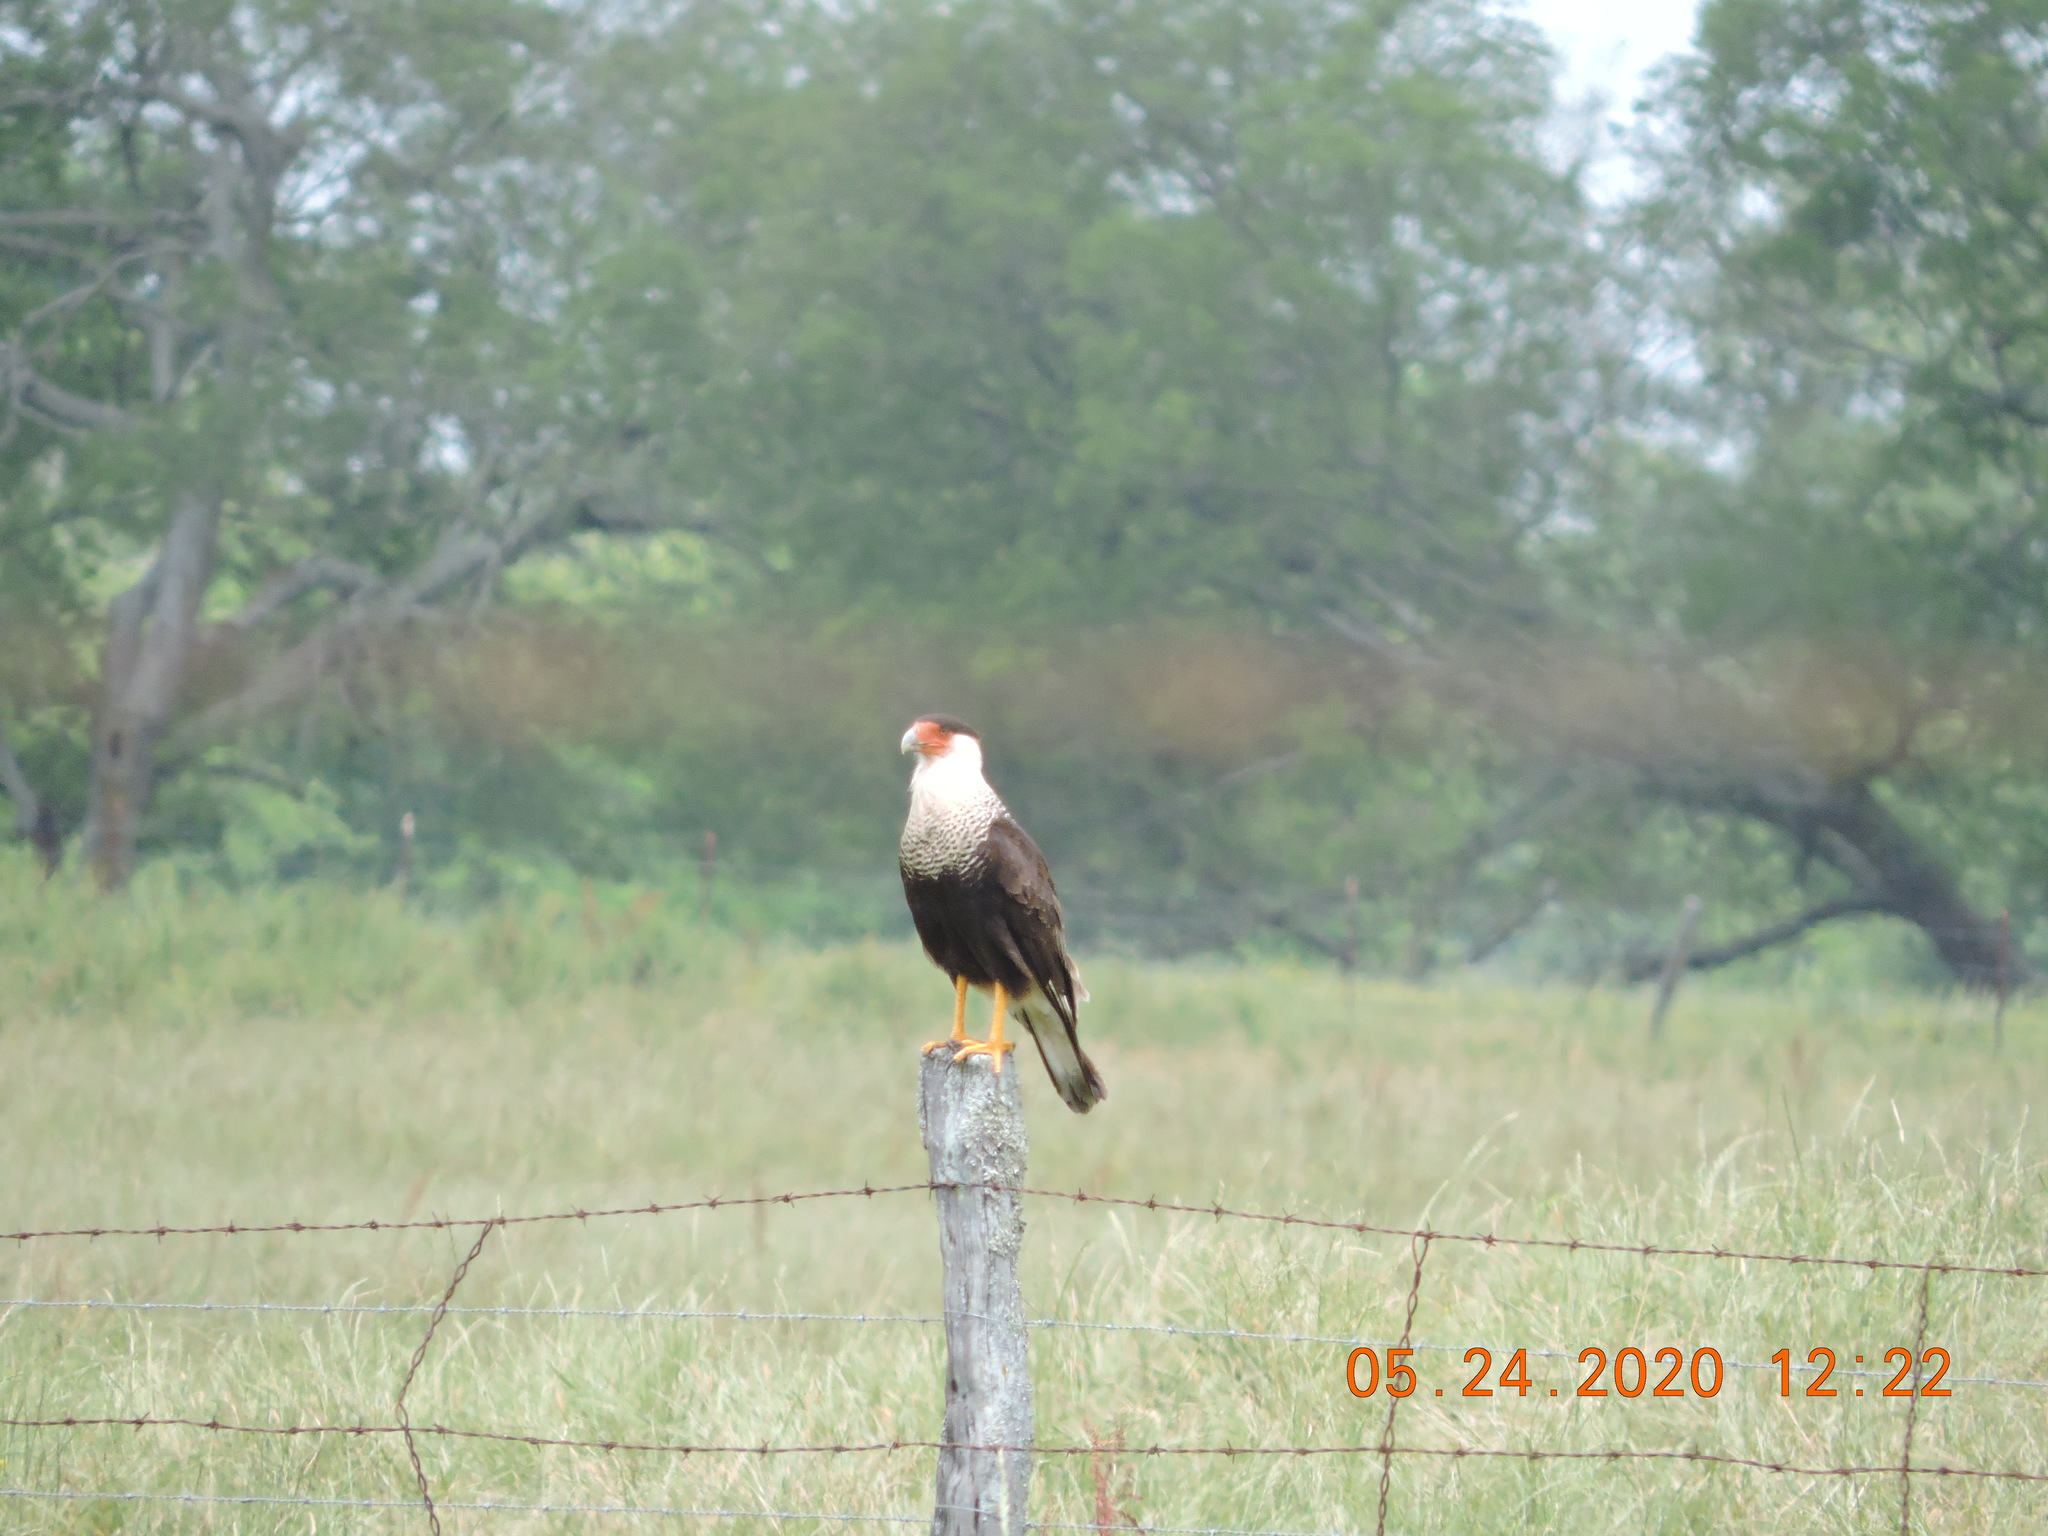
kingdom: Animalia
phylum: Chordata
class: Aves
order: Falconiformes
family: Falconidae
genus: Caracara
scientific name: Caracara plancus
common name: Southern caracara
